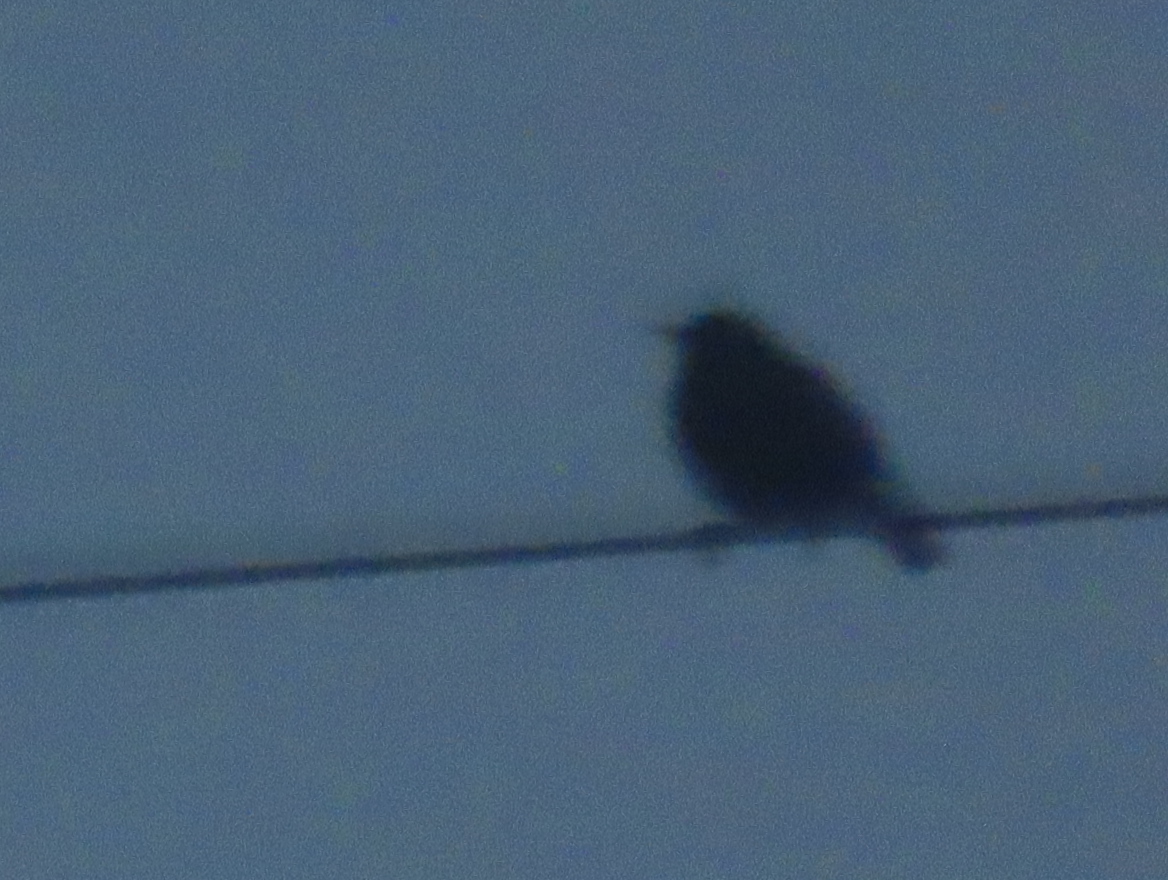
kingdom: Animalia
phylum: Chordata
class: Aves
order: Passeriformes
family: Sturnidae
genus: Sturnus
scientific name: Sturnus vulgaris
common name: Common starling
